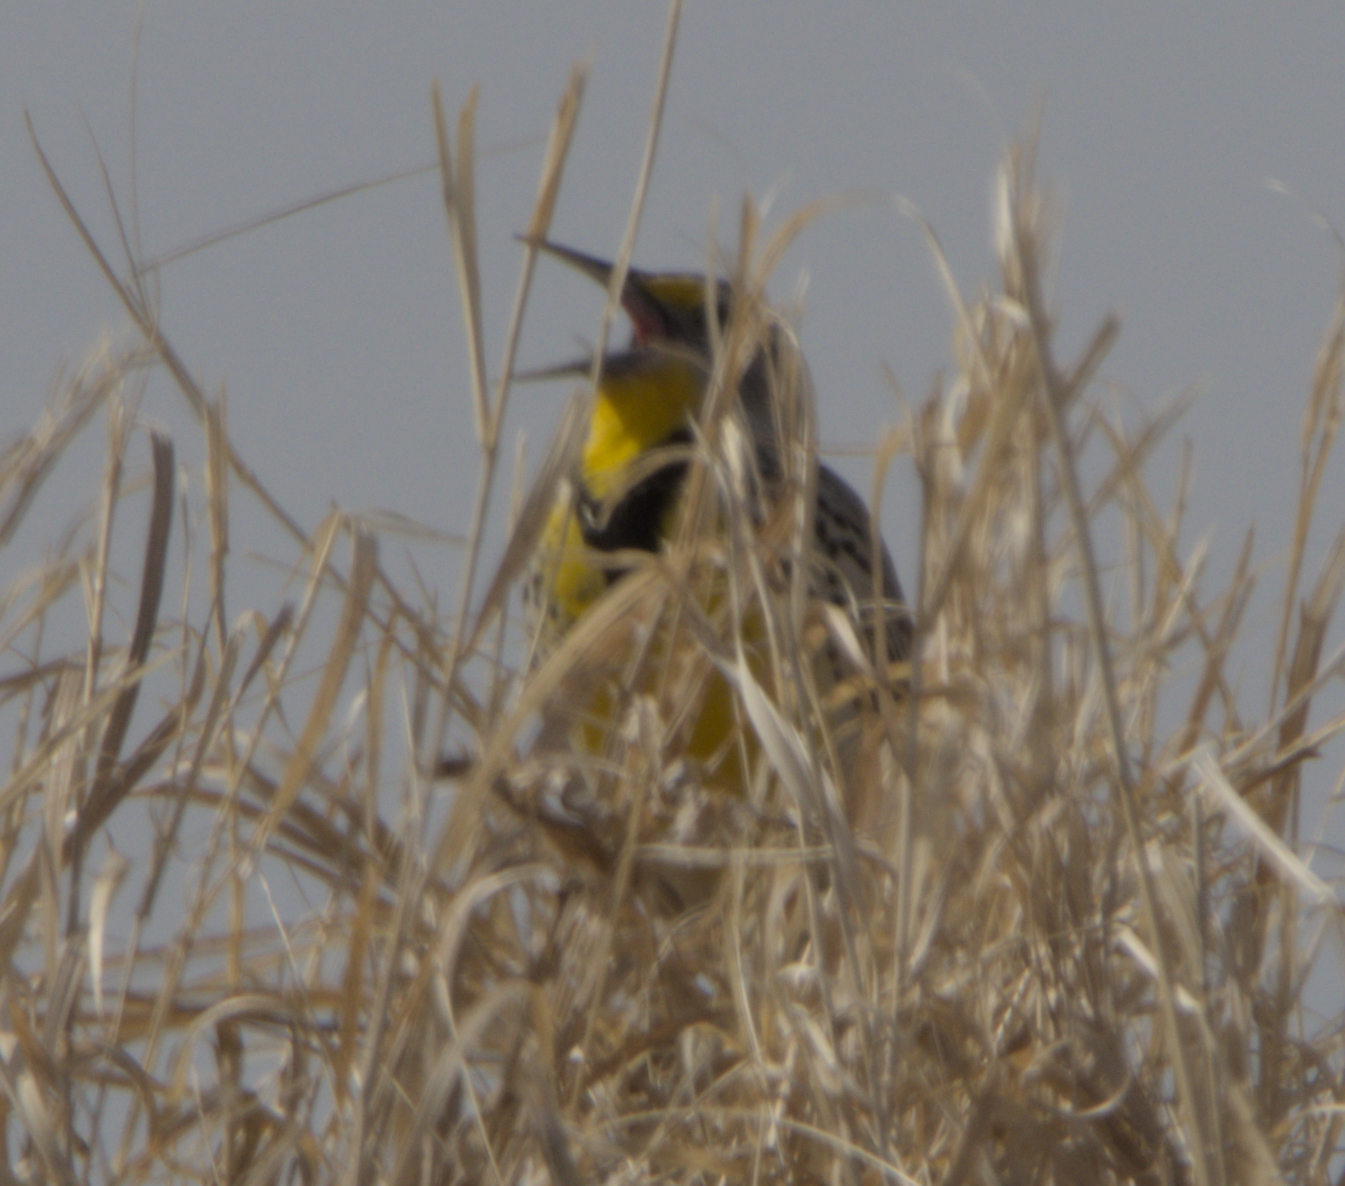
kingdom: Animalia
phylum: Chordata
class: Aves
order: Passeriformes
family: Icteridae
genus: Sturnella
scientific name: Sturnella neglecta
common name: Western meadowlark
